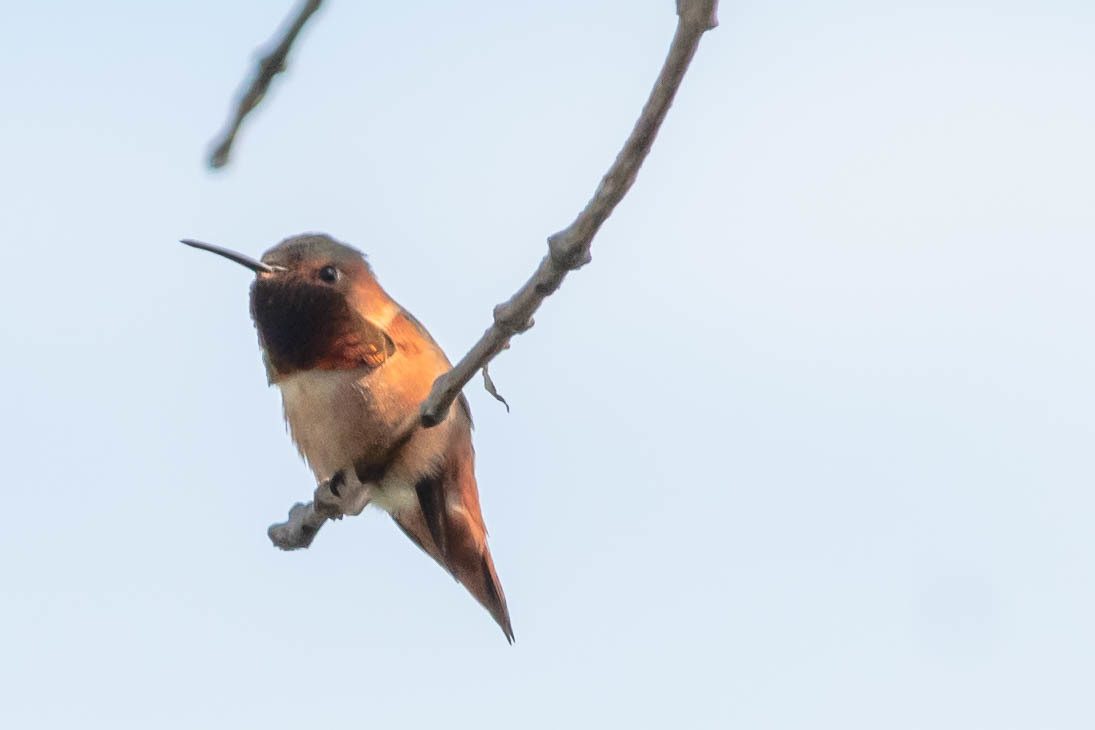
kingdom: Animalia
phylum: Chordata
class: Aves
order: Apodiformes
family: Trochilidae
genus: Selasphorus
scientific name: Selasphorus sasin
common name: Allen's hummingbird
